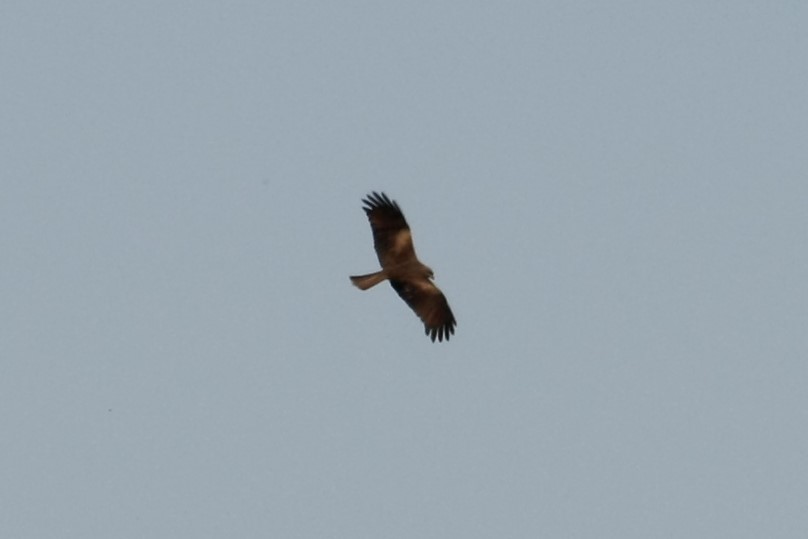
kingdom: Animalia
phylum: Chordata
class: Aves
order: Accipitriformes
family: Accipitridae
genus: Milvus
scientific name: Milvus migrans
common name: Black kite
